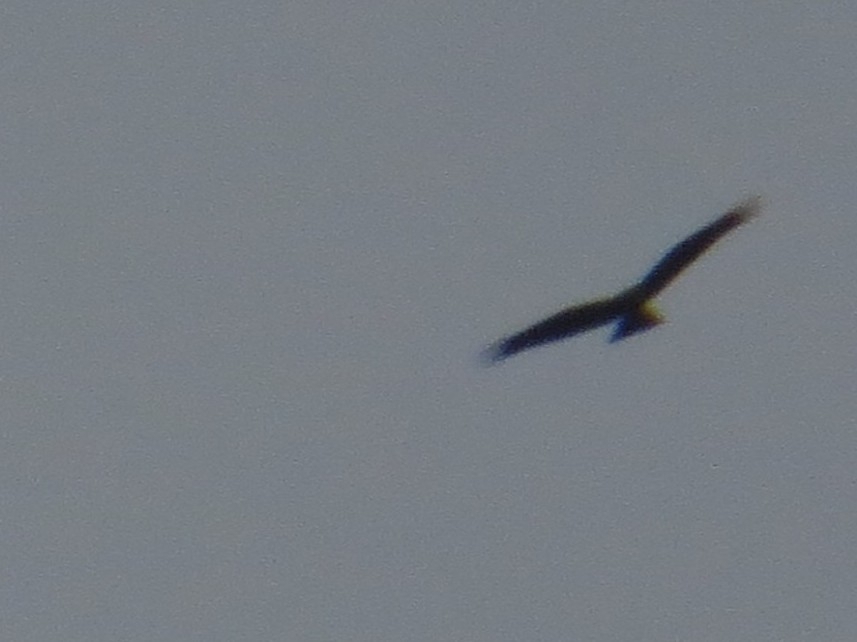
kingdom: Animalia
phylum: Chordata
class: Aves
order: Accipitriformes
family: Accipitridae
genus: Milvus
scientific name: Milvus migrans
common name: Black kite
